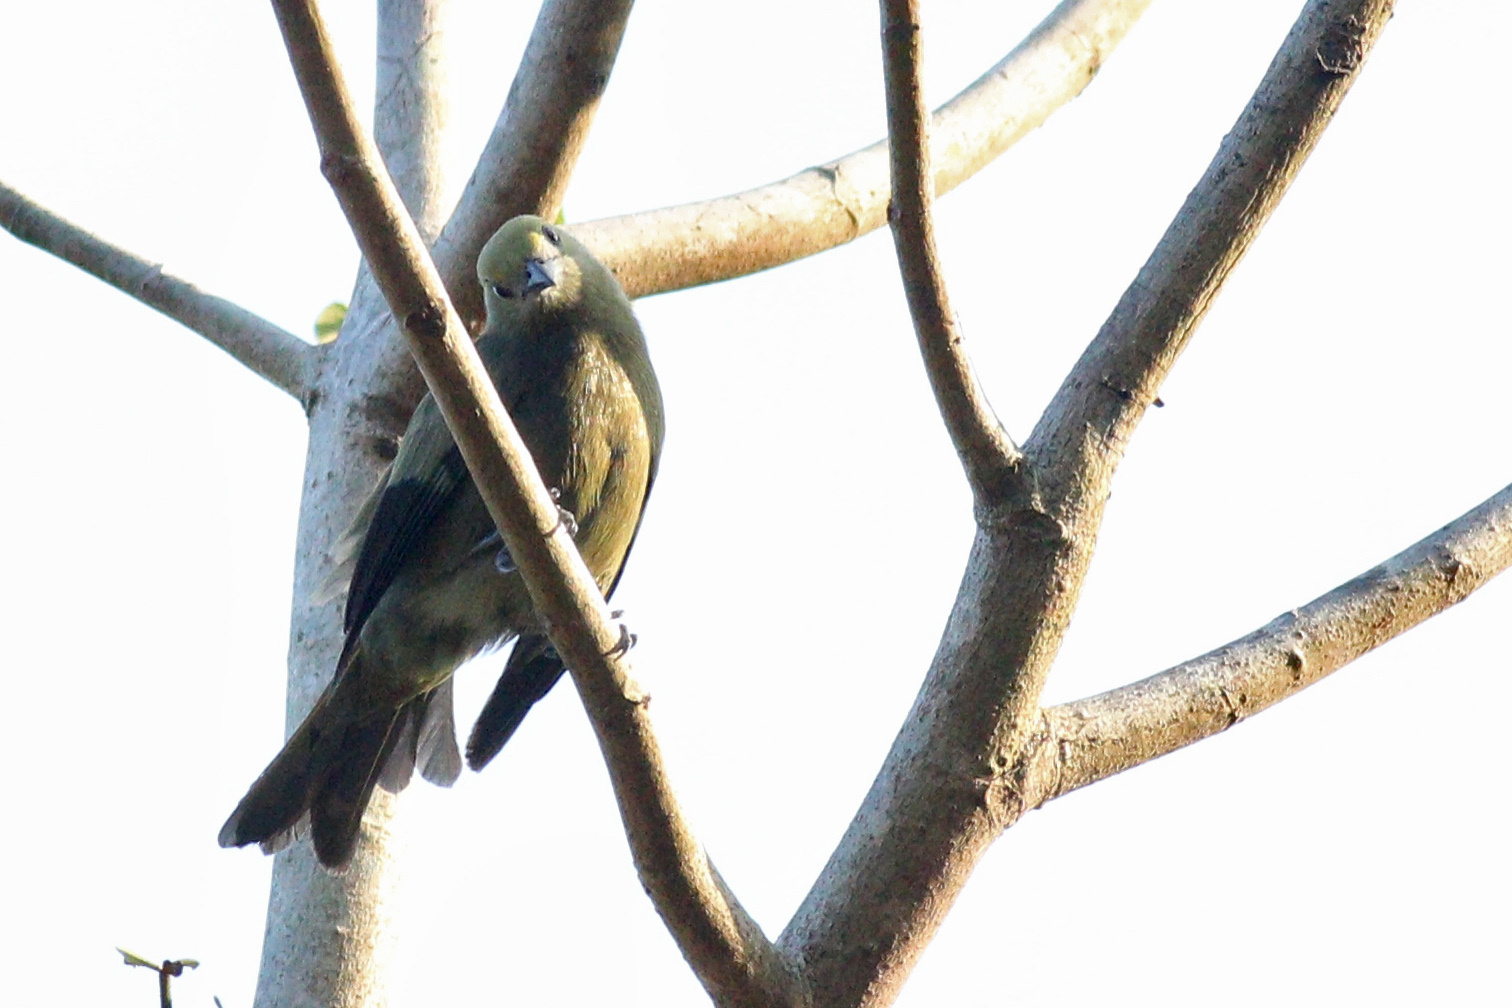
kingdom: Animalia
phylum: Chordata
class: Aves
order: Passeriformes
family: Thraupidae
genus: Thraupis
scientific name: Thraupis palmarum
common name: Palm tanager
